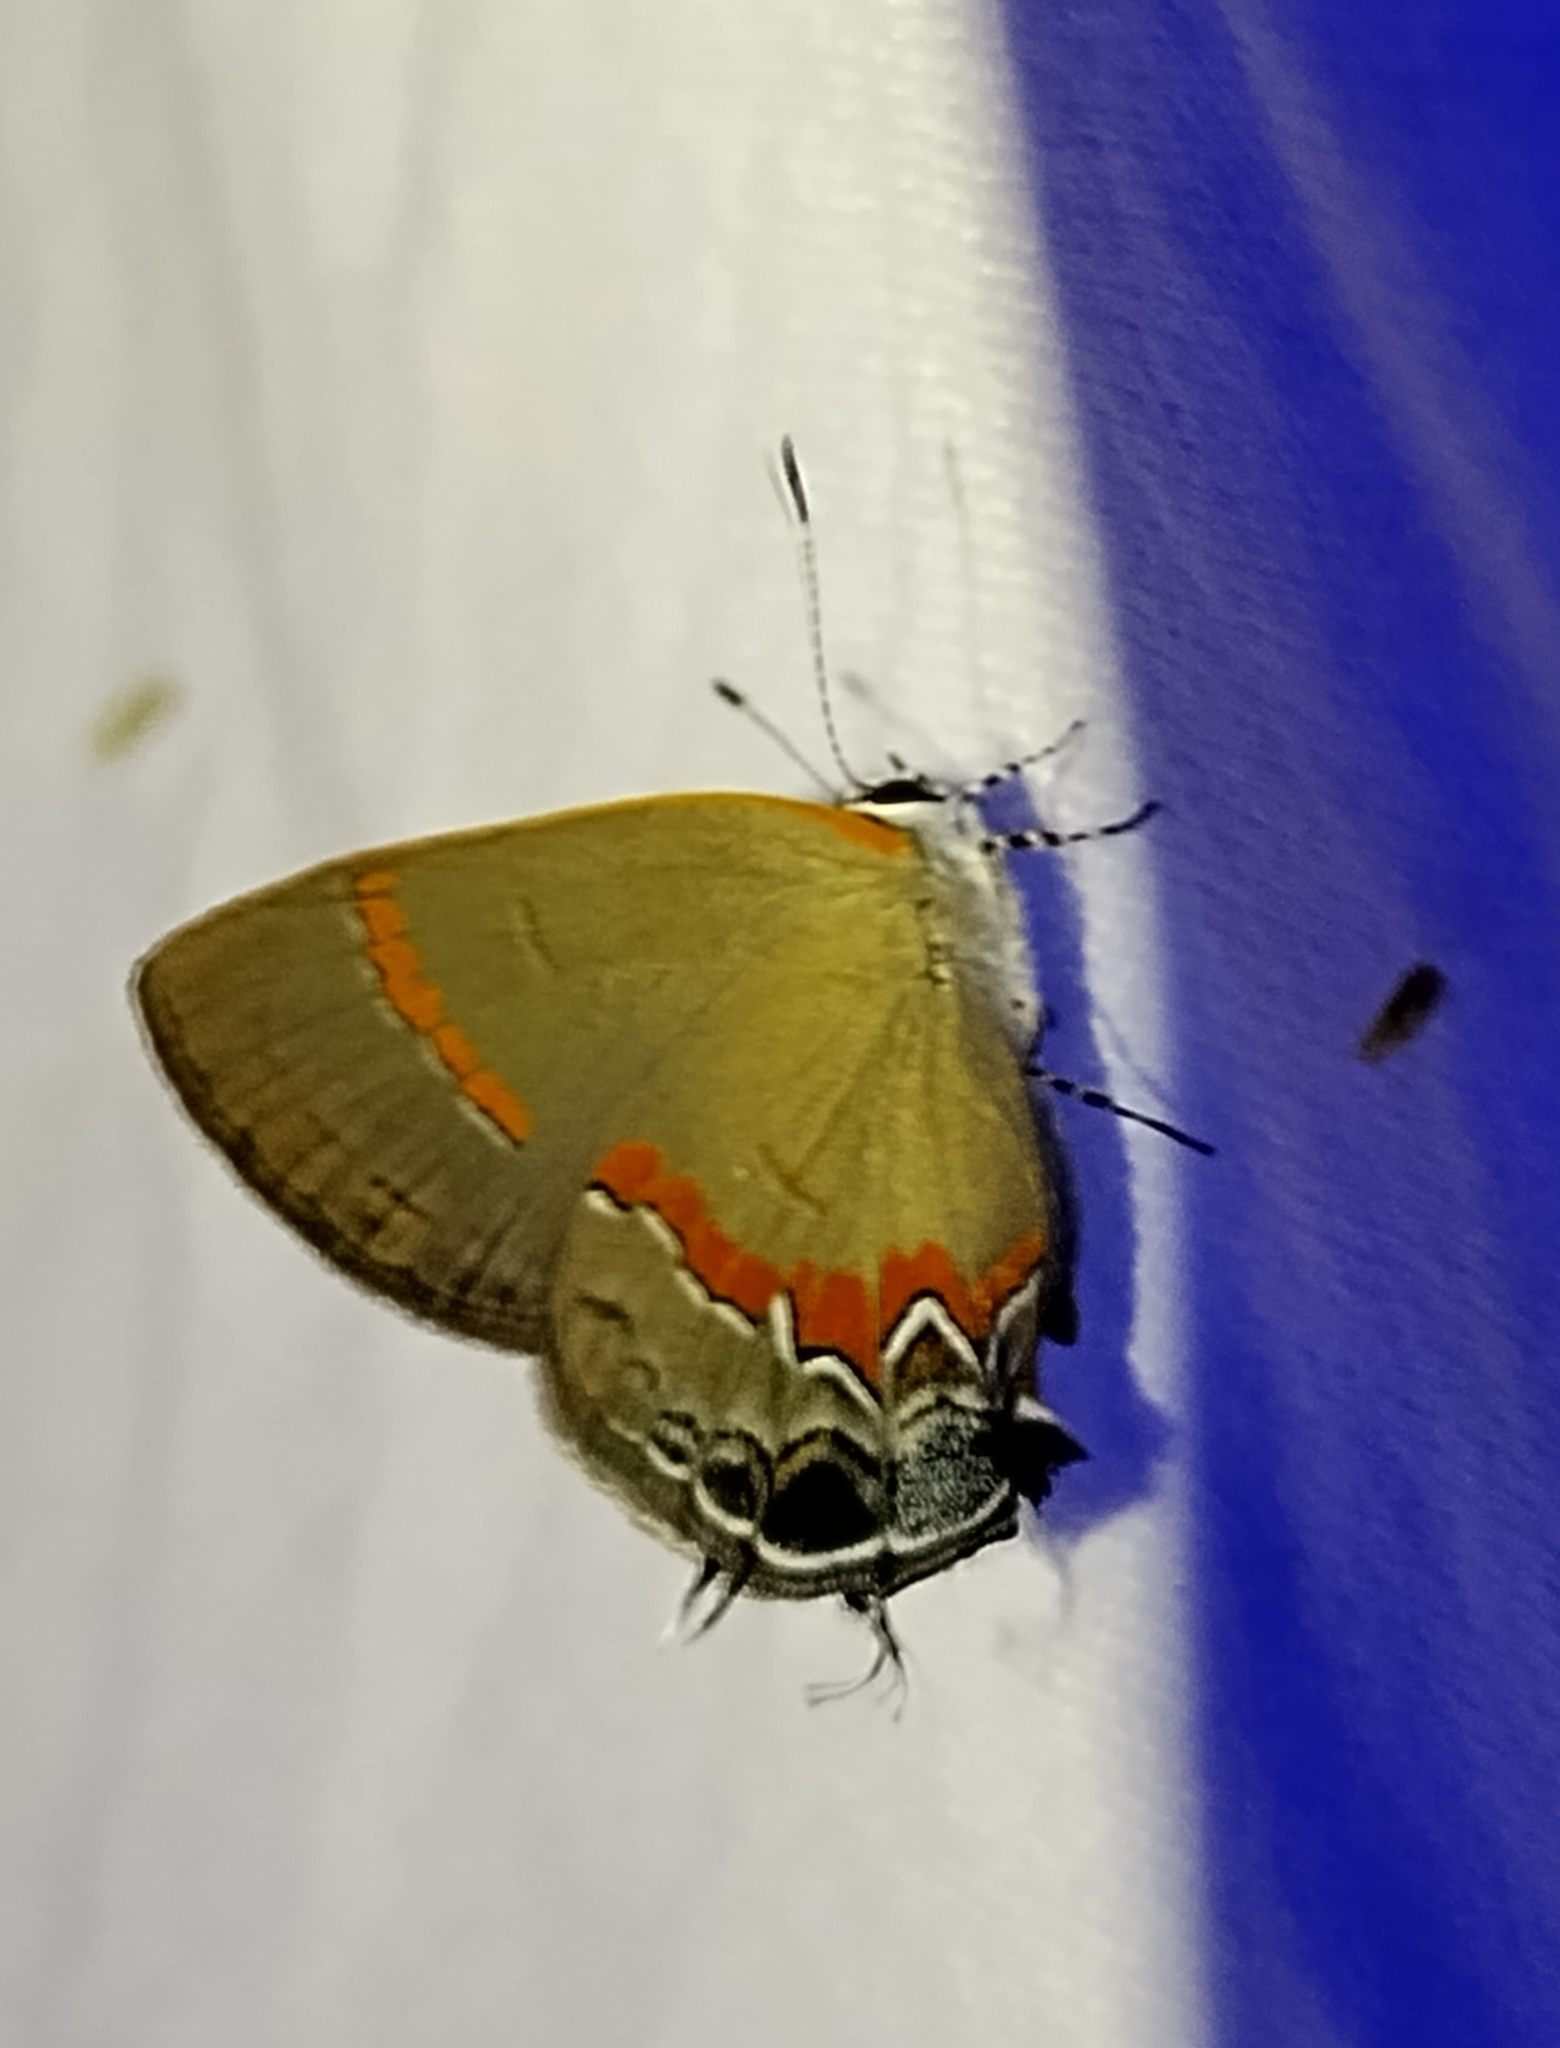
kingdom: Animalia
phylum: Arthropoda
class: Insecta
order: Lepidoptera
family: Lycaenidae
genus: Calycopis
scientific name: Calycopis cecrops
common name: Red-banded hairstreak
